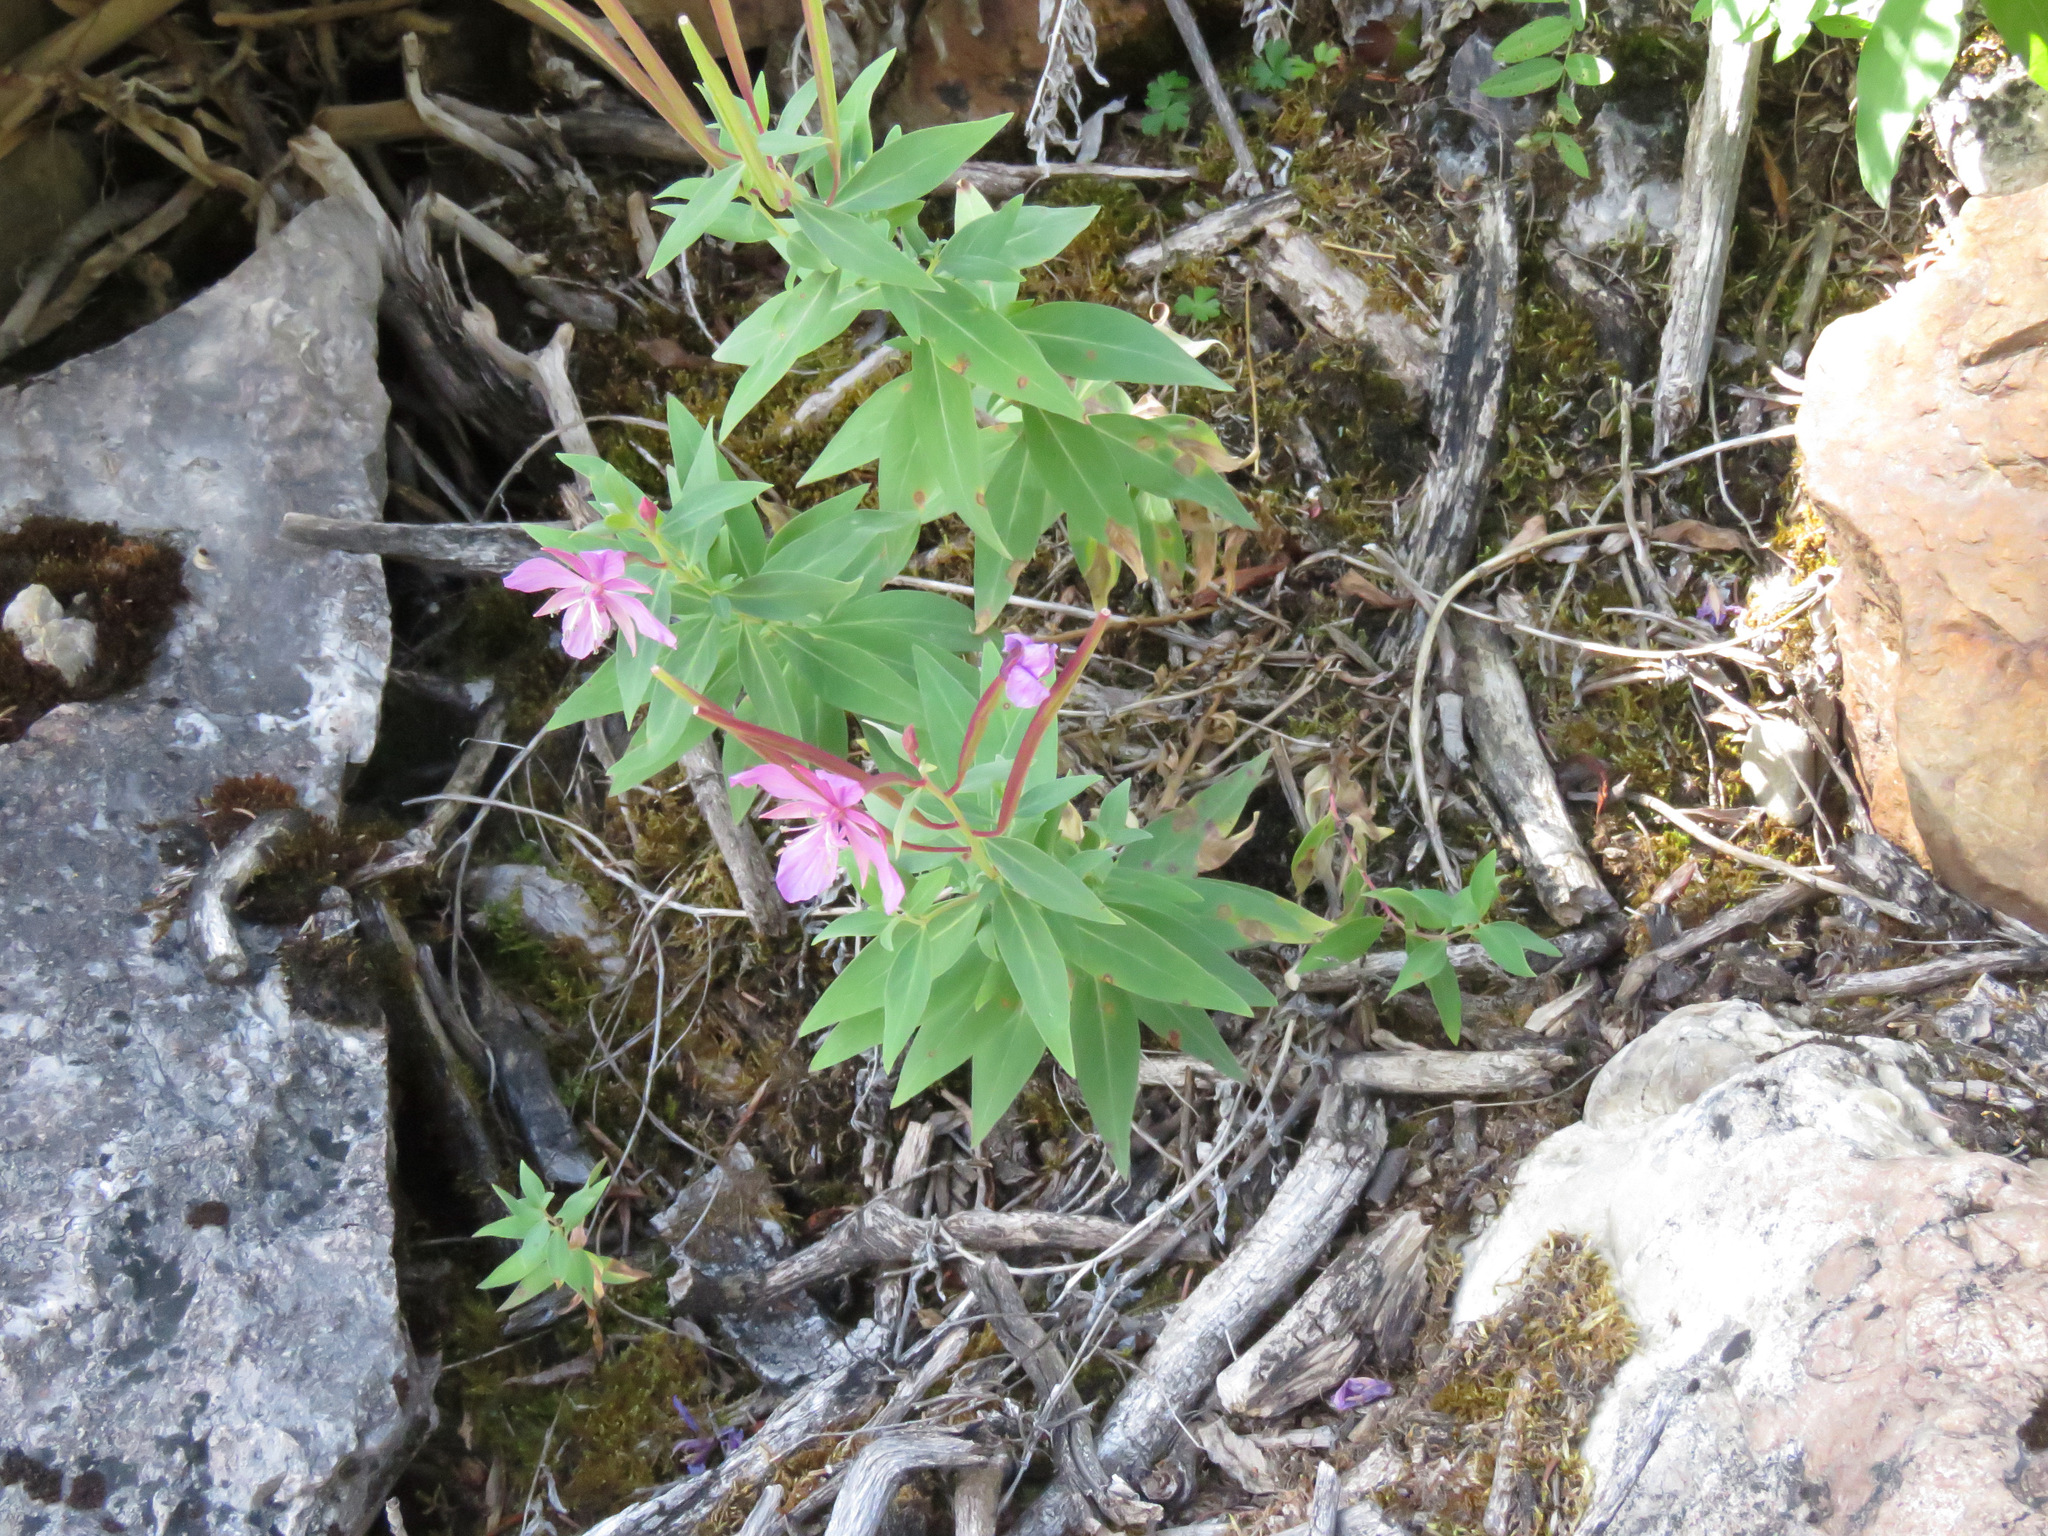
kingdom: Plantae
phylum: Tracheophyta
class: Magnoliopsida
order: Myrtales
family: Onagraceae
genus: Chamaenerion
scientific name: Chamaenerion latifolium
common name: Dwarf fireweed
